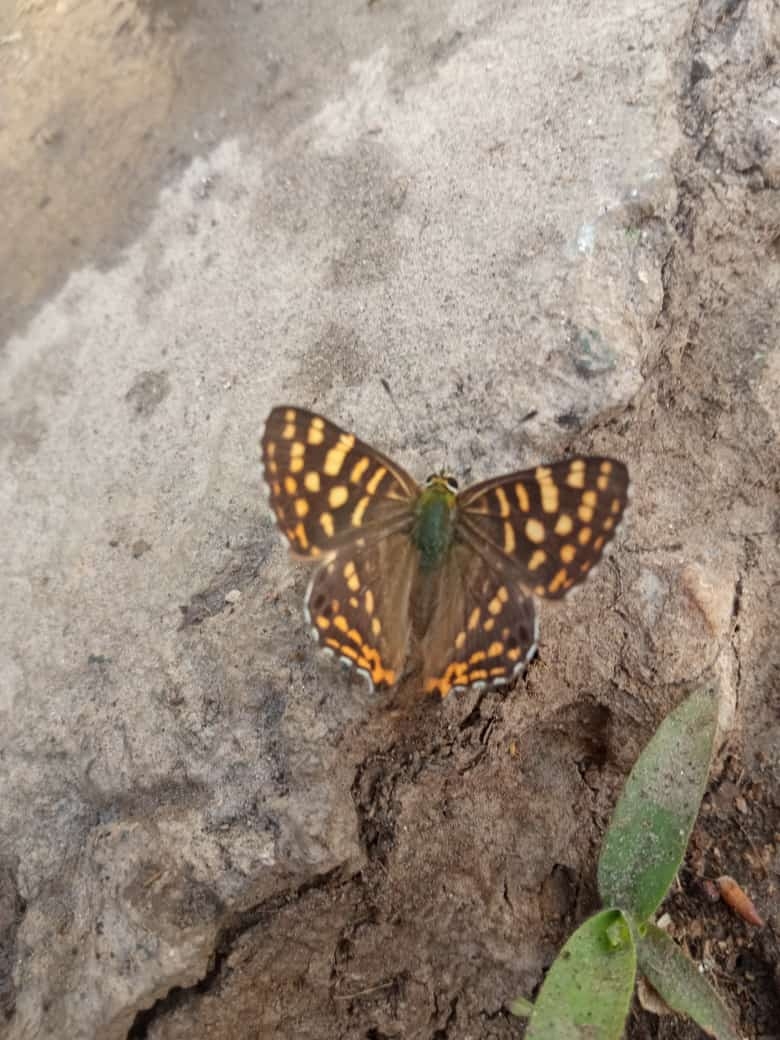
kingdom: Animalia
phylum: Arthropoda
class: Insecta
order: Lepidoptera
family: Lycaenidae
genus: Dodona
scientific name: Dodona durga
